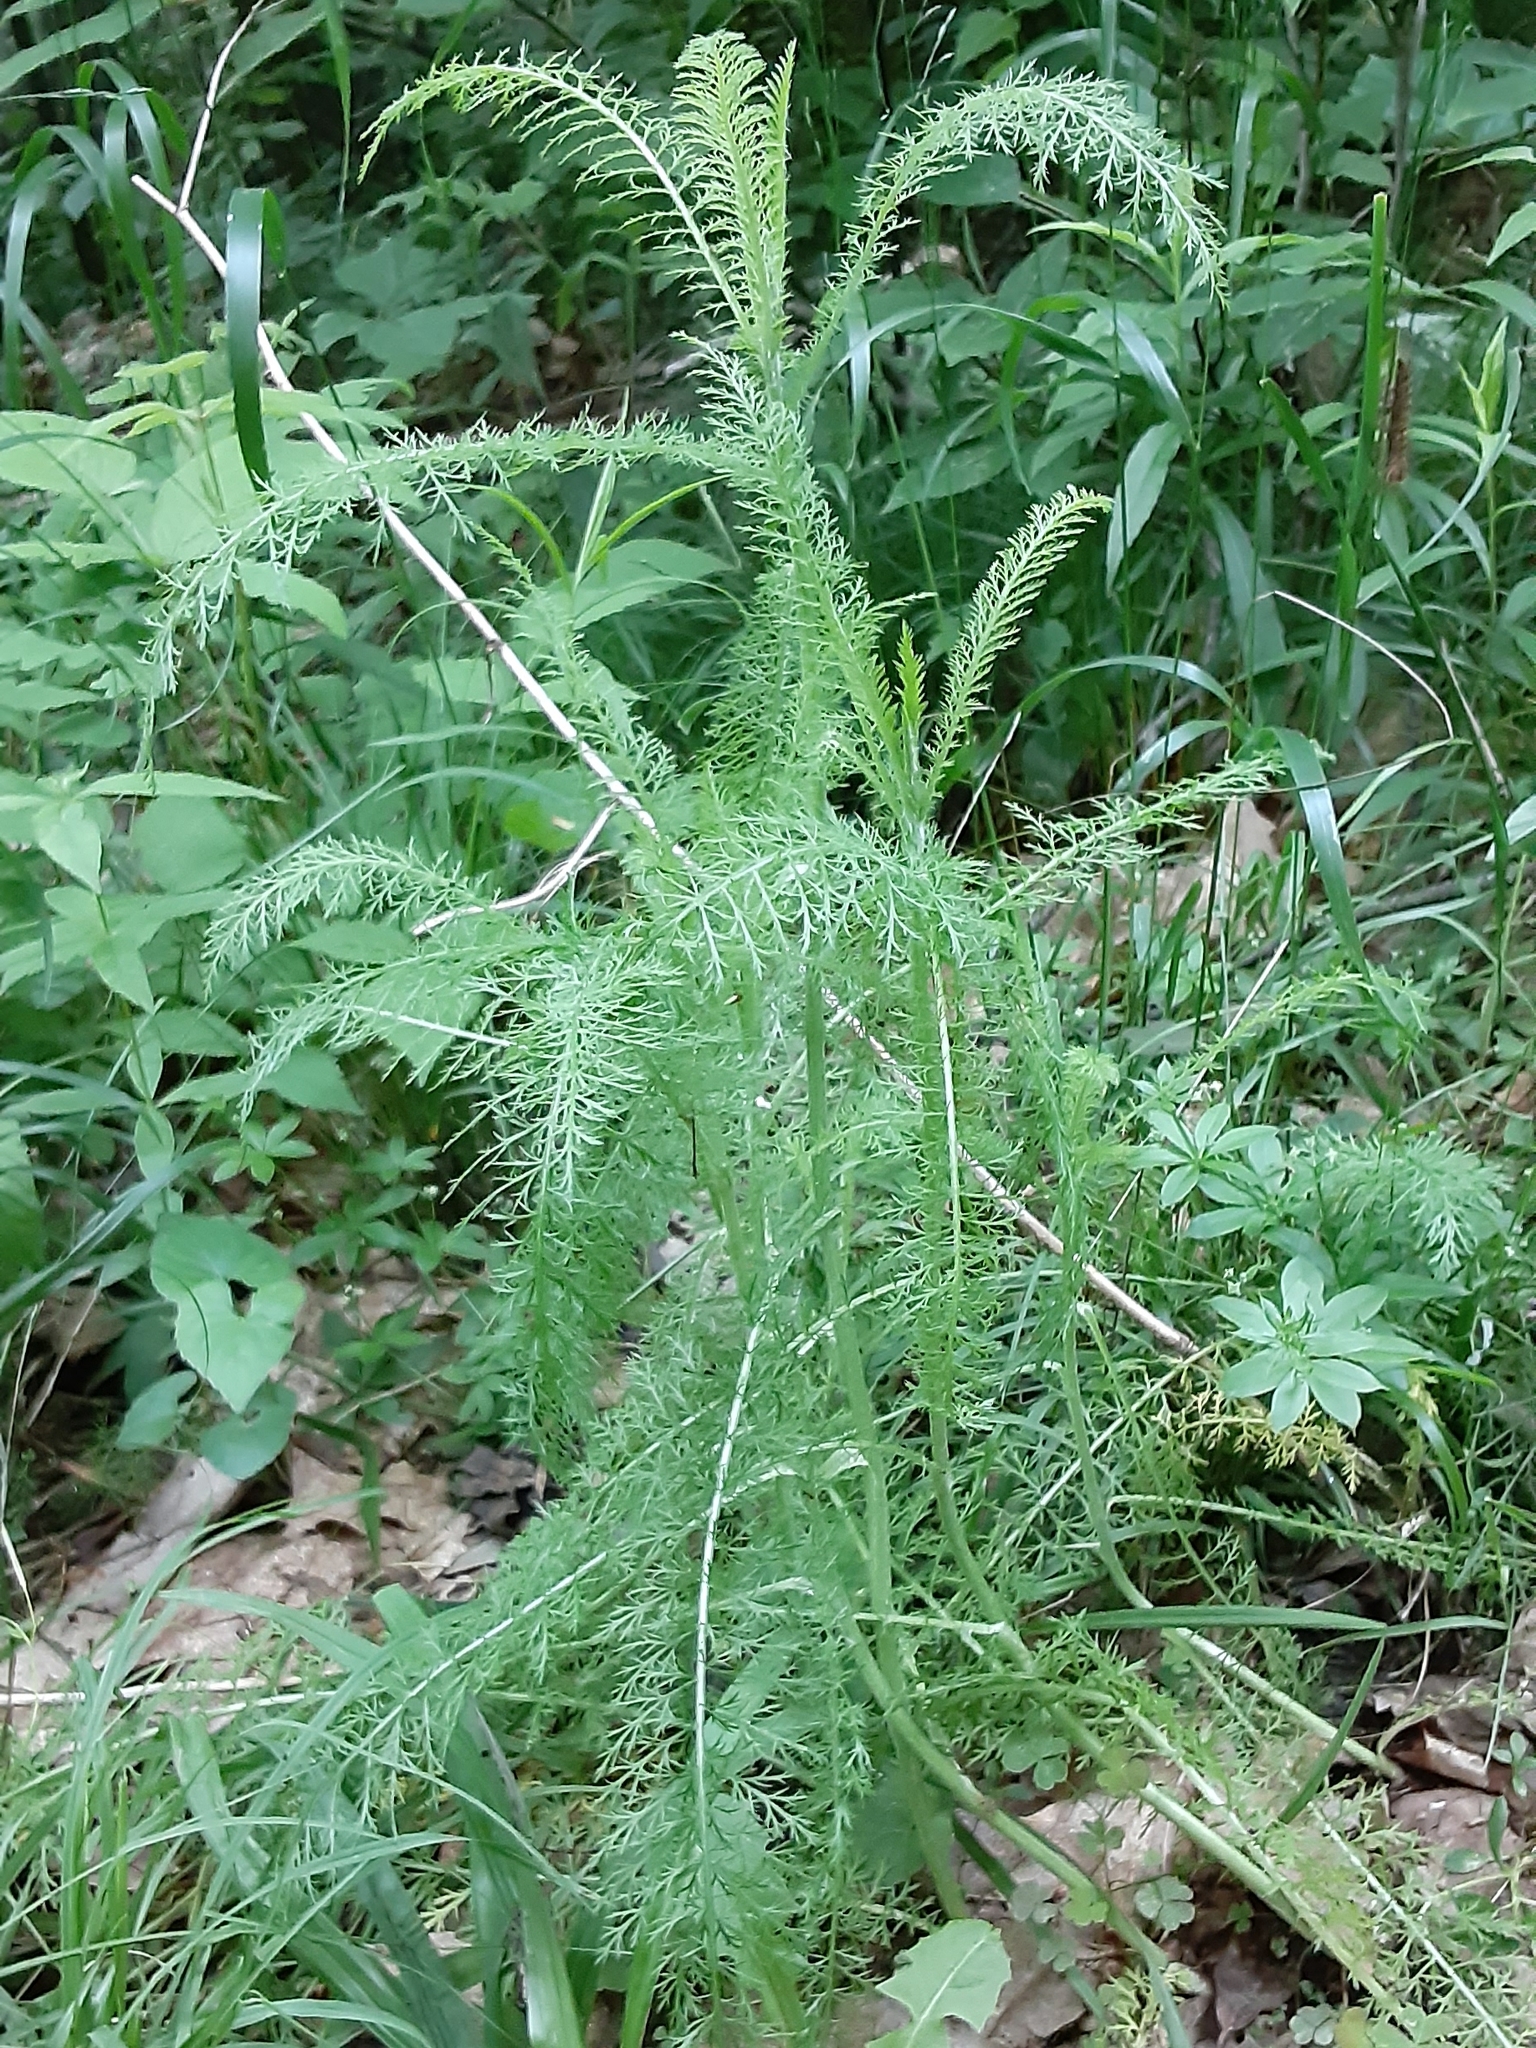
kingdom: Plantae
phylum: Tracheophyta
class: Magnoliopsida
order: Asterales
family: Asteraceae
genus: Achillea
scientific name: Achillea millefolium
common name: Yarrow
